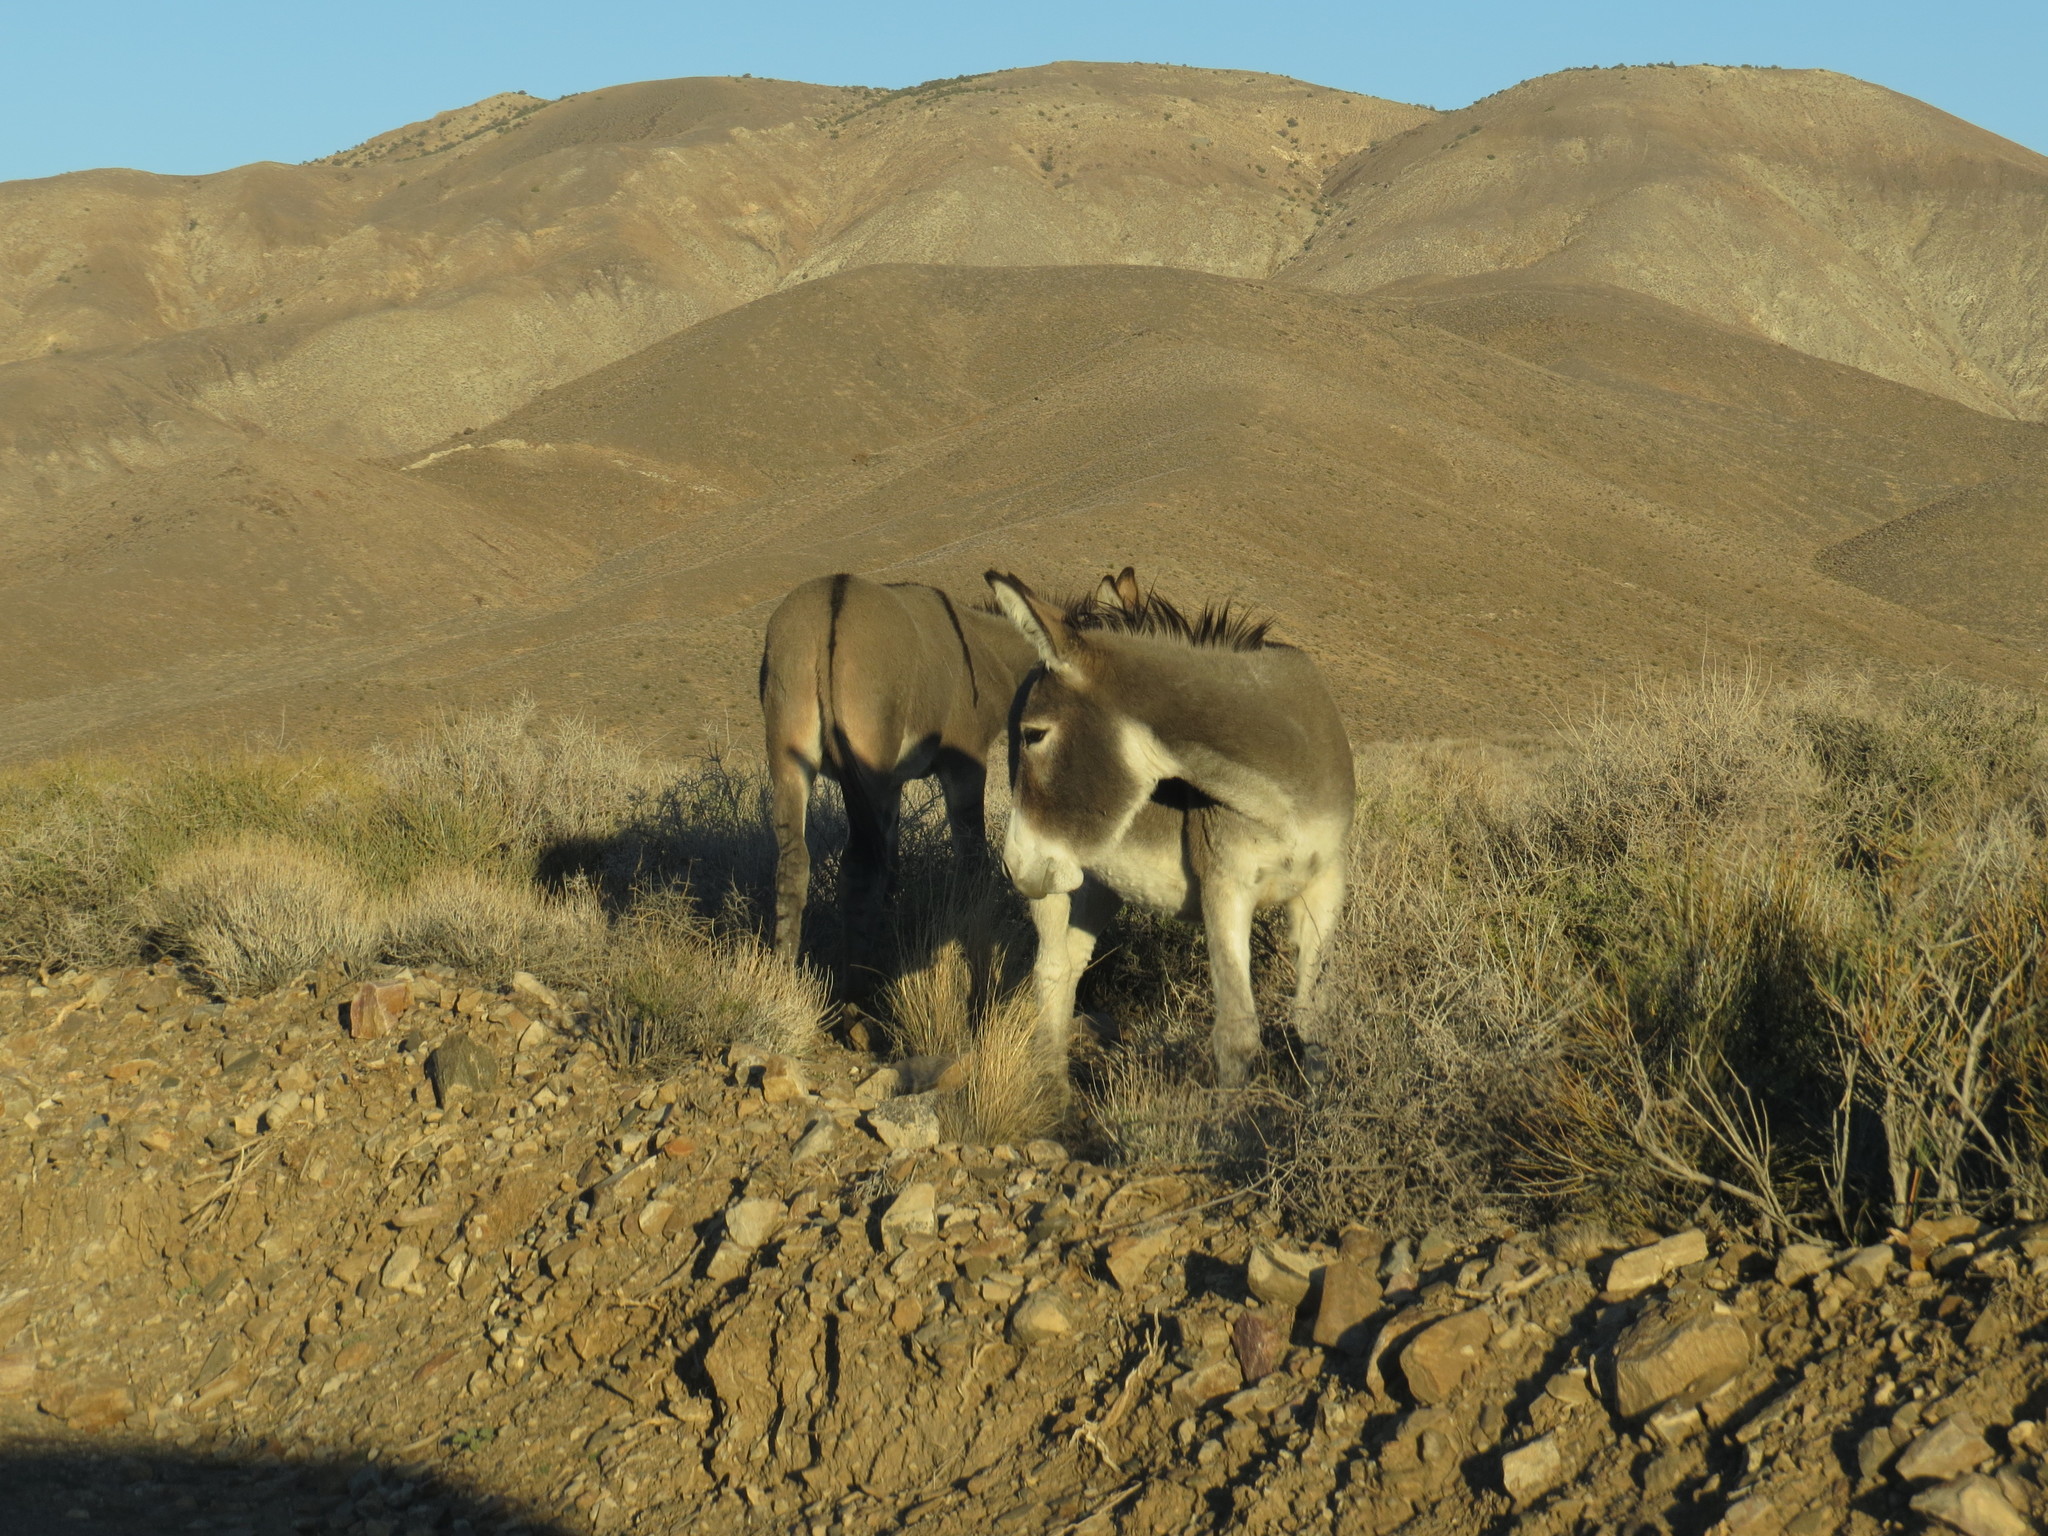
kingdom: Animalia
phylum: Chordata
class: Mammalia
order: Perissodactyla
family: Equidae
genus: Equus
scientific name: Equus asinus
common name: Ass
